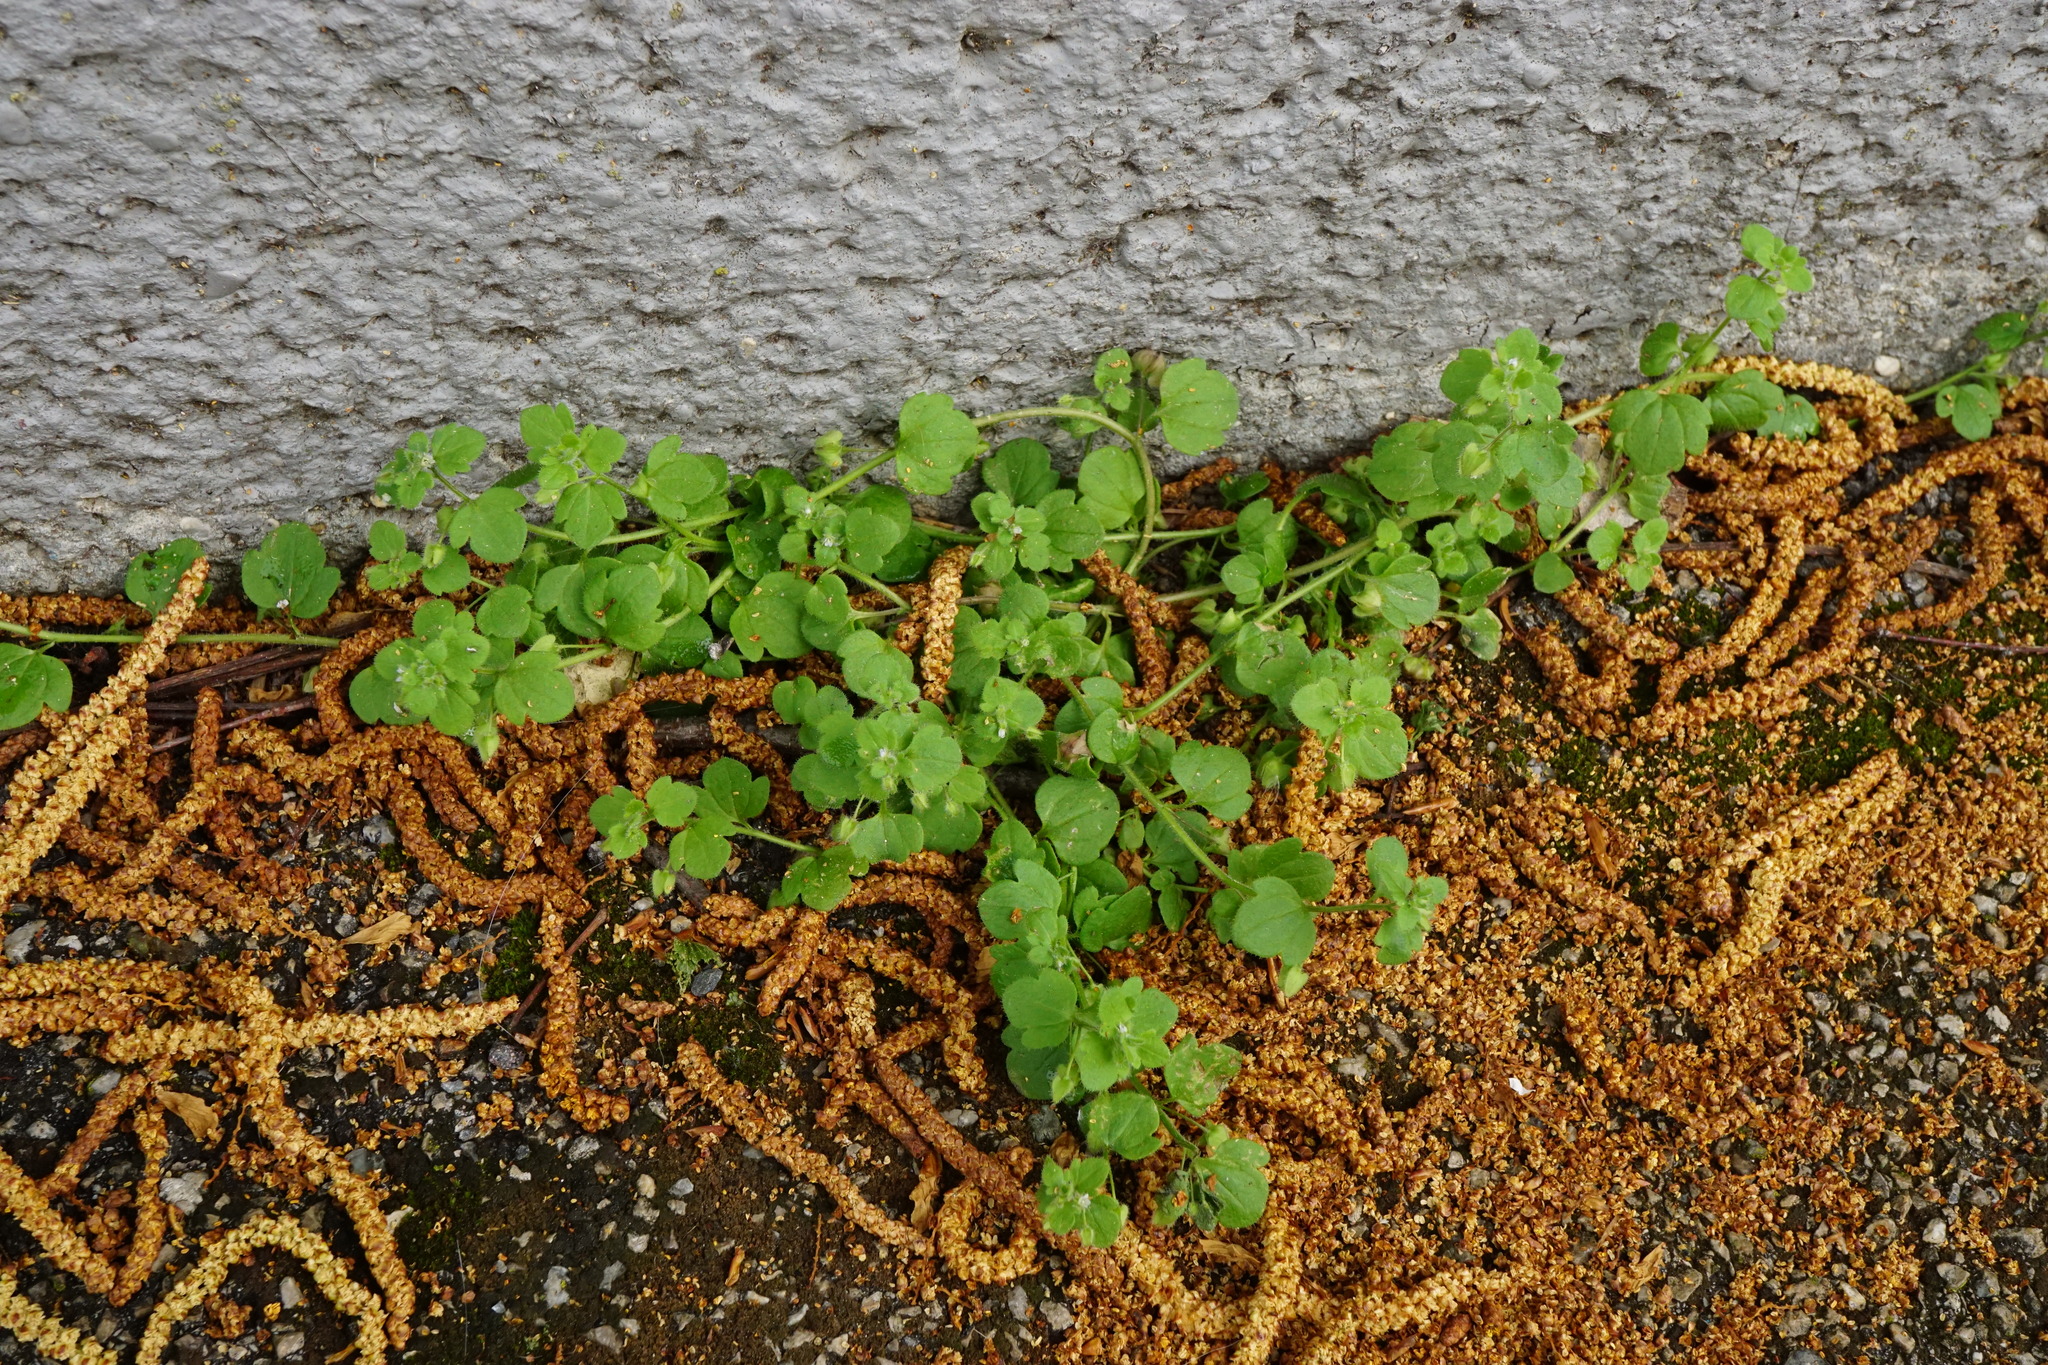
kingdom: Plantae
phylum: Tracheophyta
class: Magnoliopsida
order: Lamiales
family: Plantaginaceae
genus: Veronica
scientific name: Veronica sublobata
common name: False ivy-leaved speedwell
